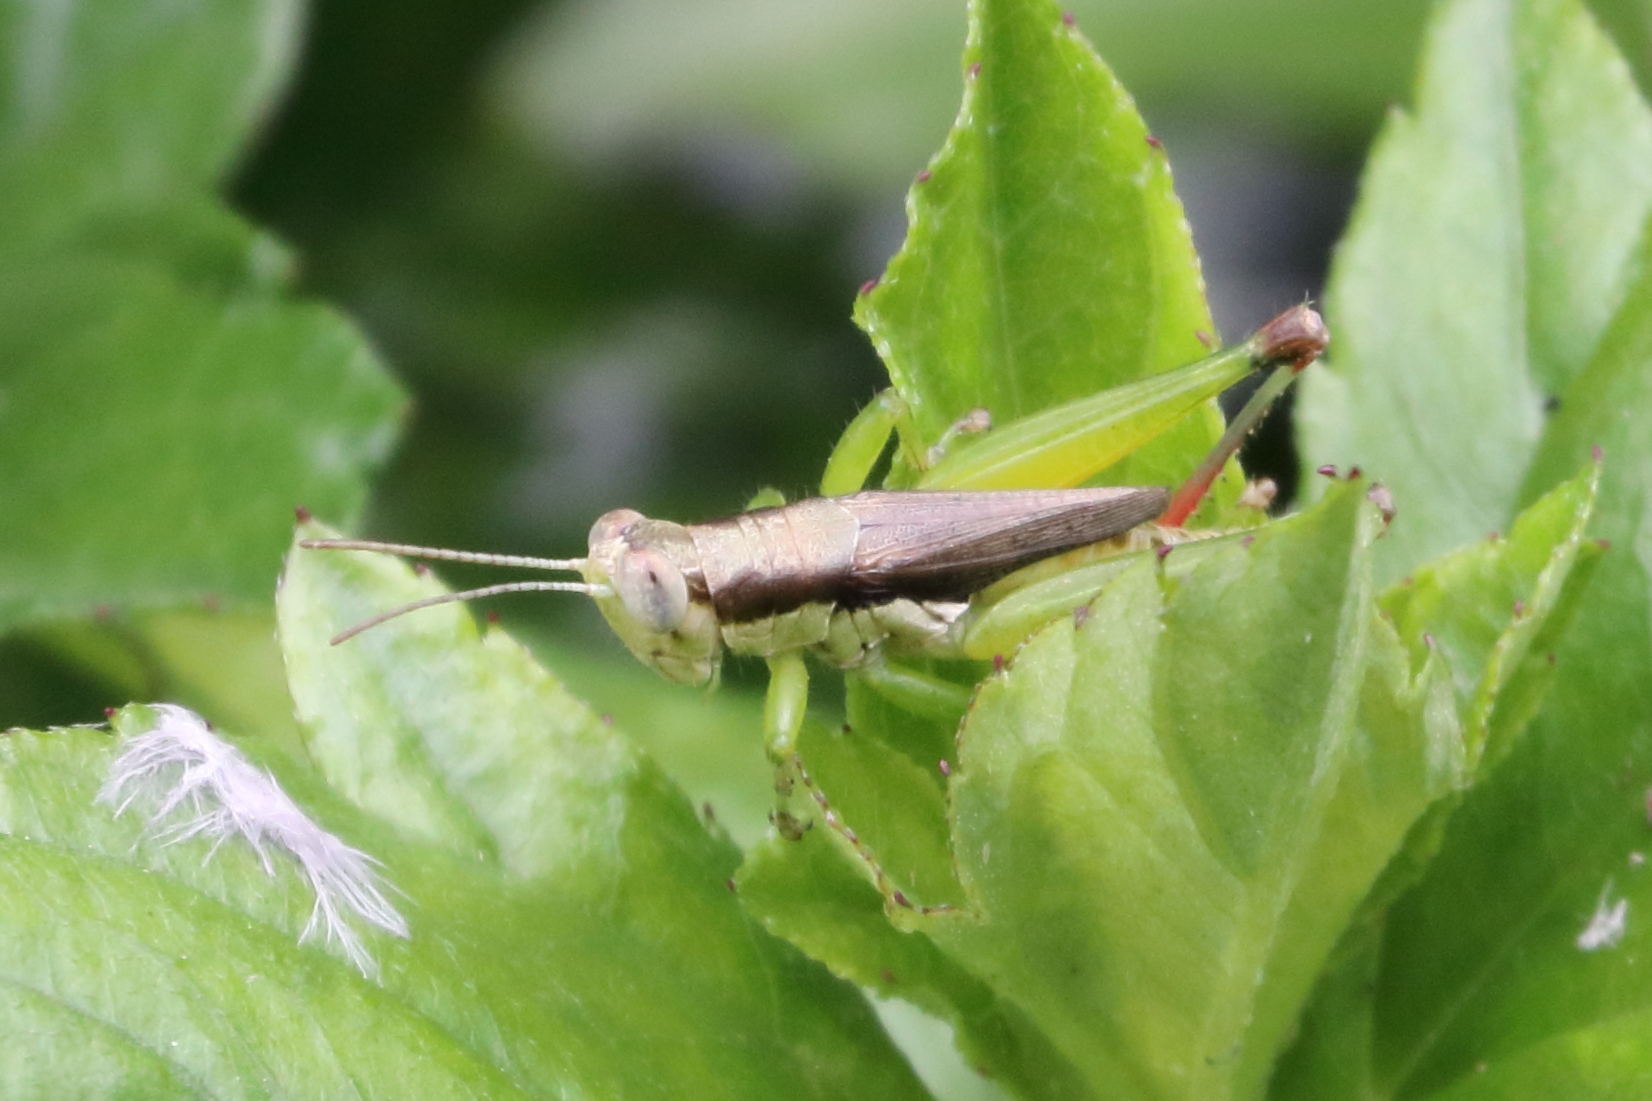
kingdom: Animalia
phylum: Arthropoda
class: Insecta
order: Orthoptera
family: Acrididae
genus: Pseudoxya
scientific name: Pseudoxya diminuta
